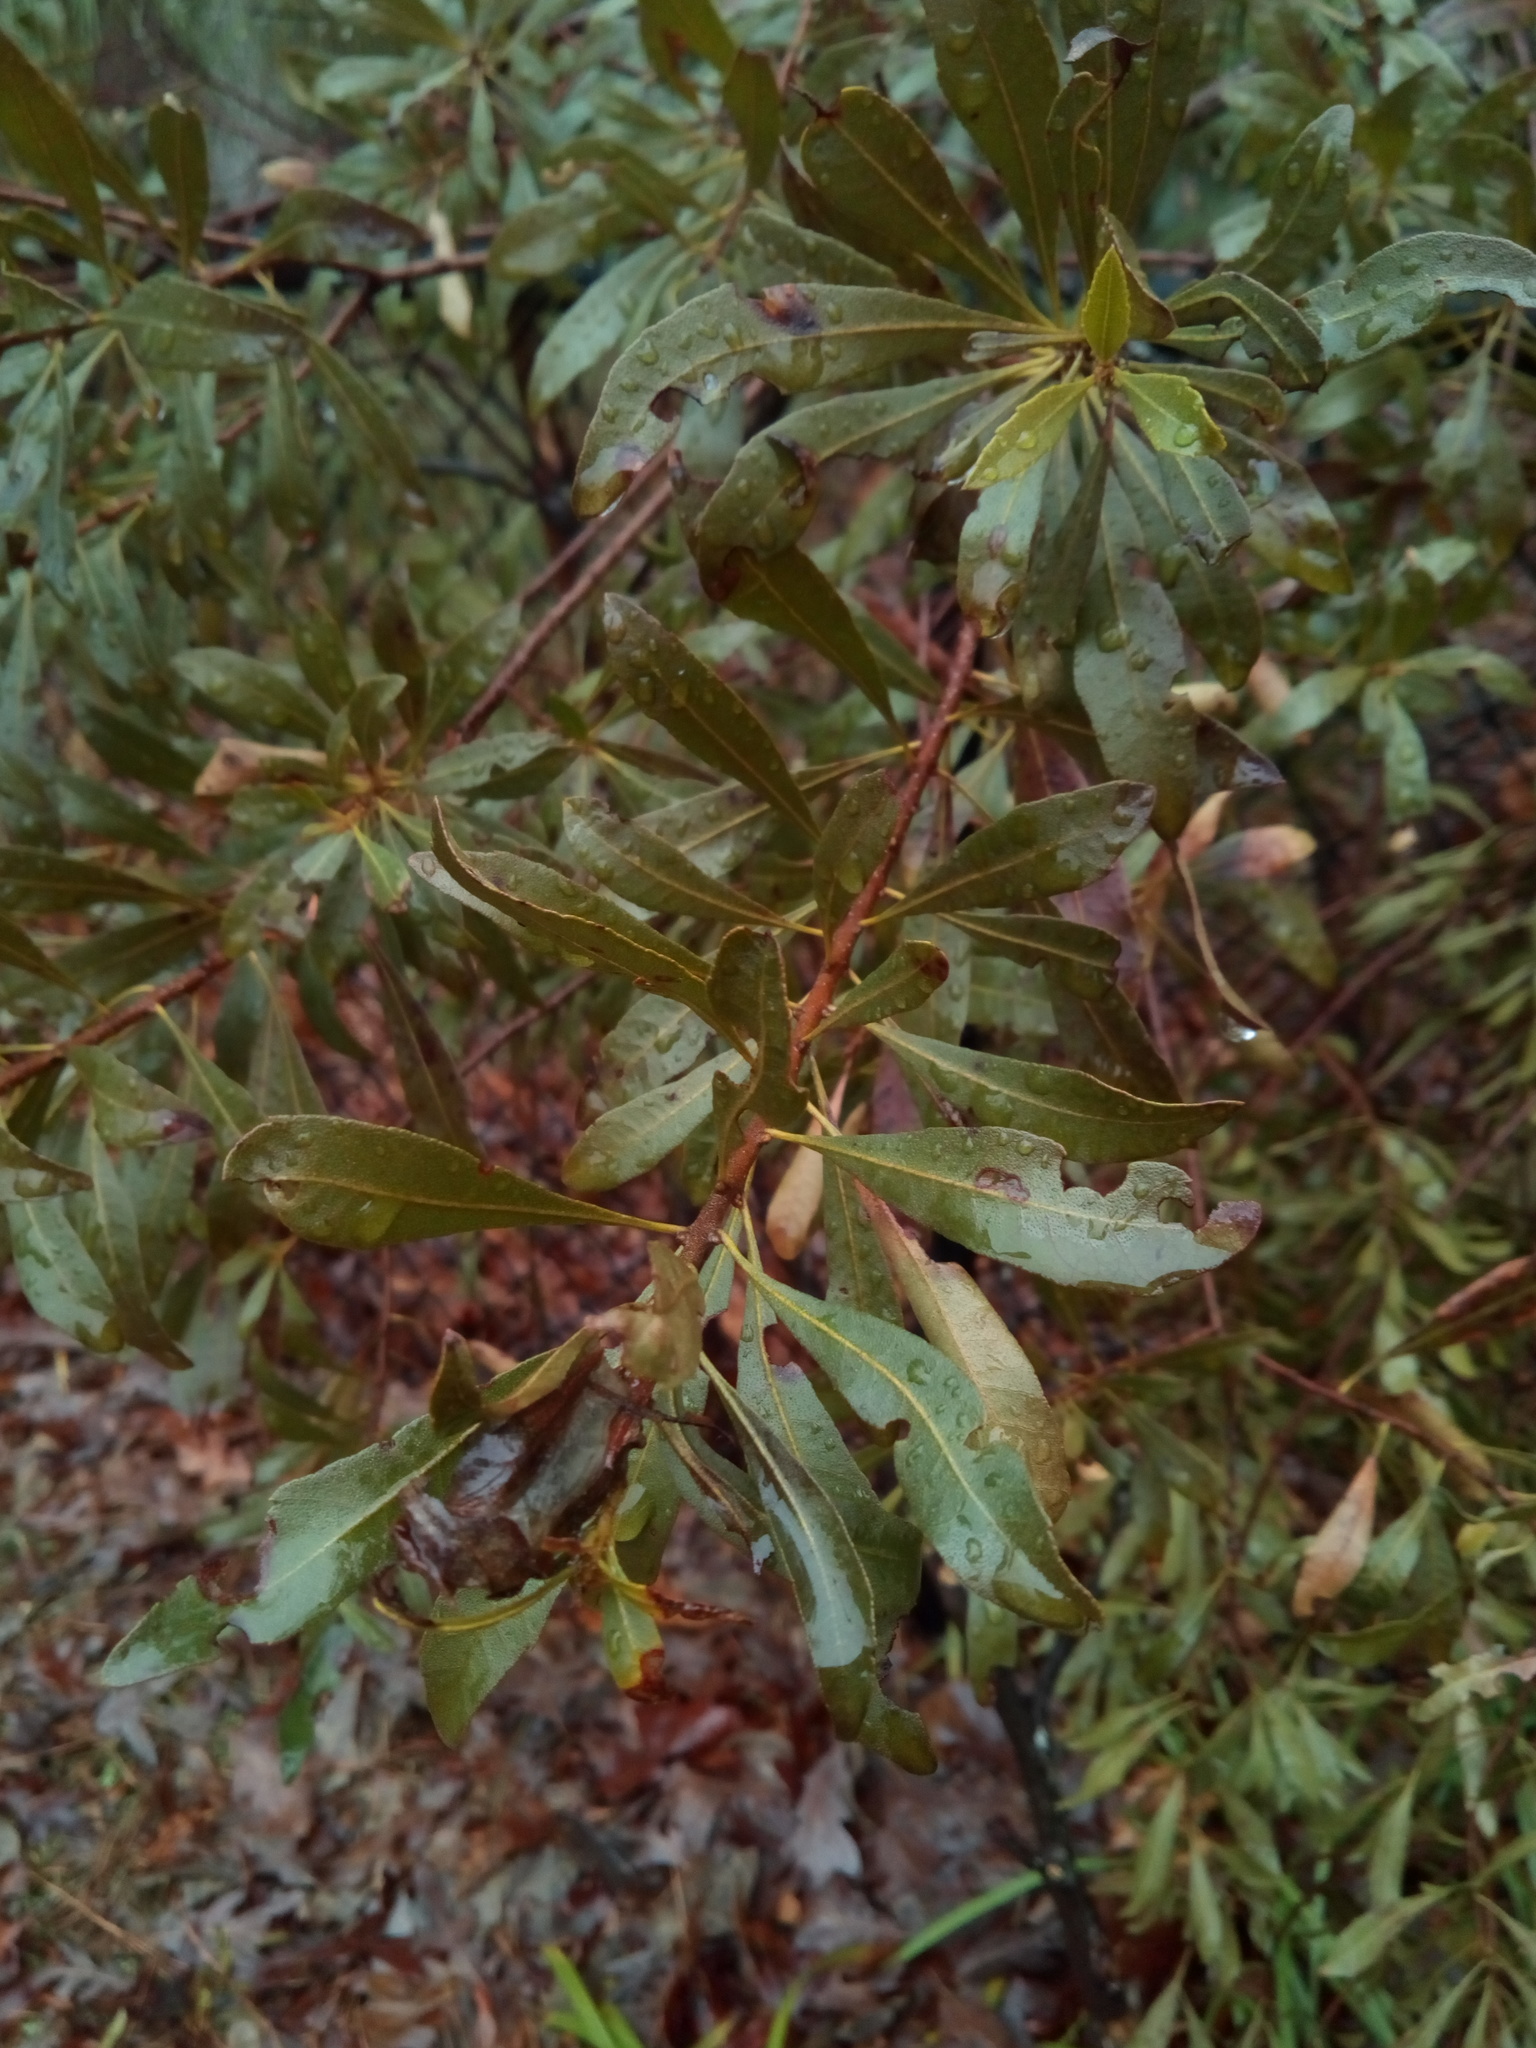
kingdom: Plantae
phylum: Tracheophyta
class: Magnoliopsida
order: Fagales
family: Myricaceae
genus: Morella
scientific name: Morella cerifera
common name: Wax myrtle
